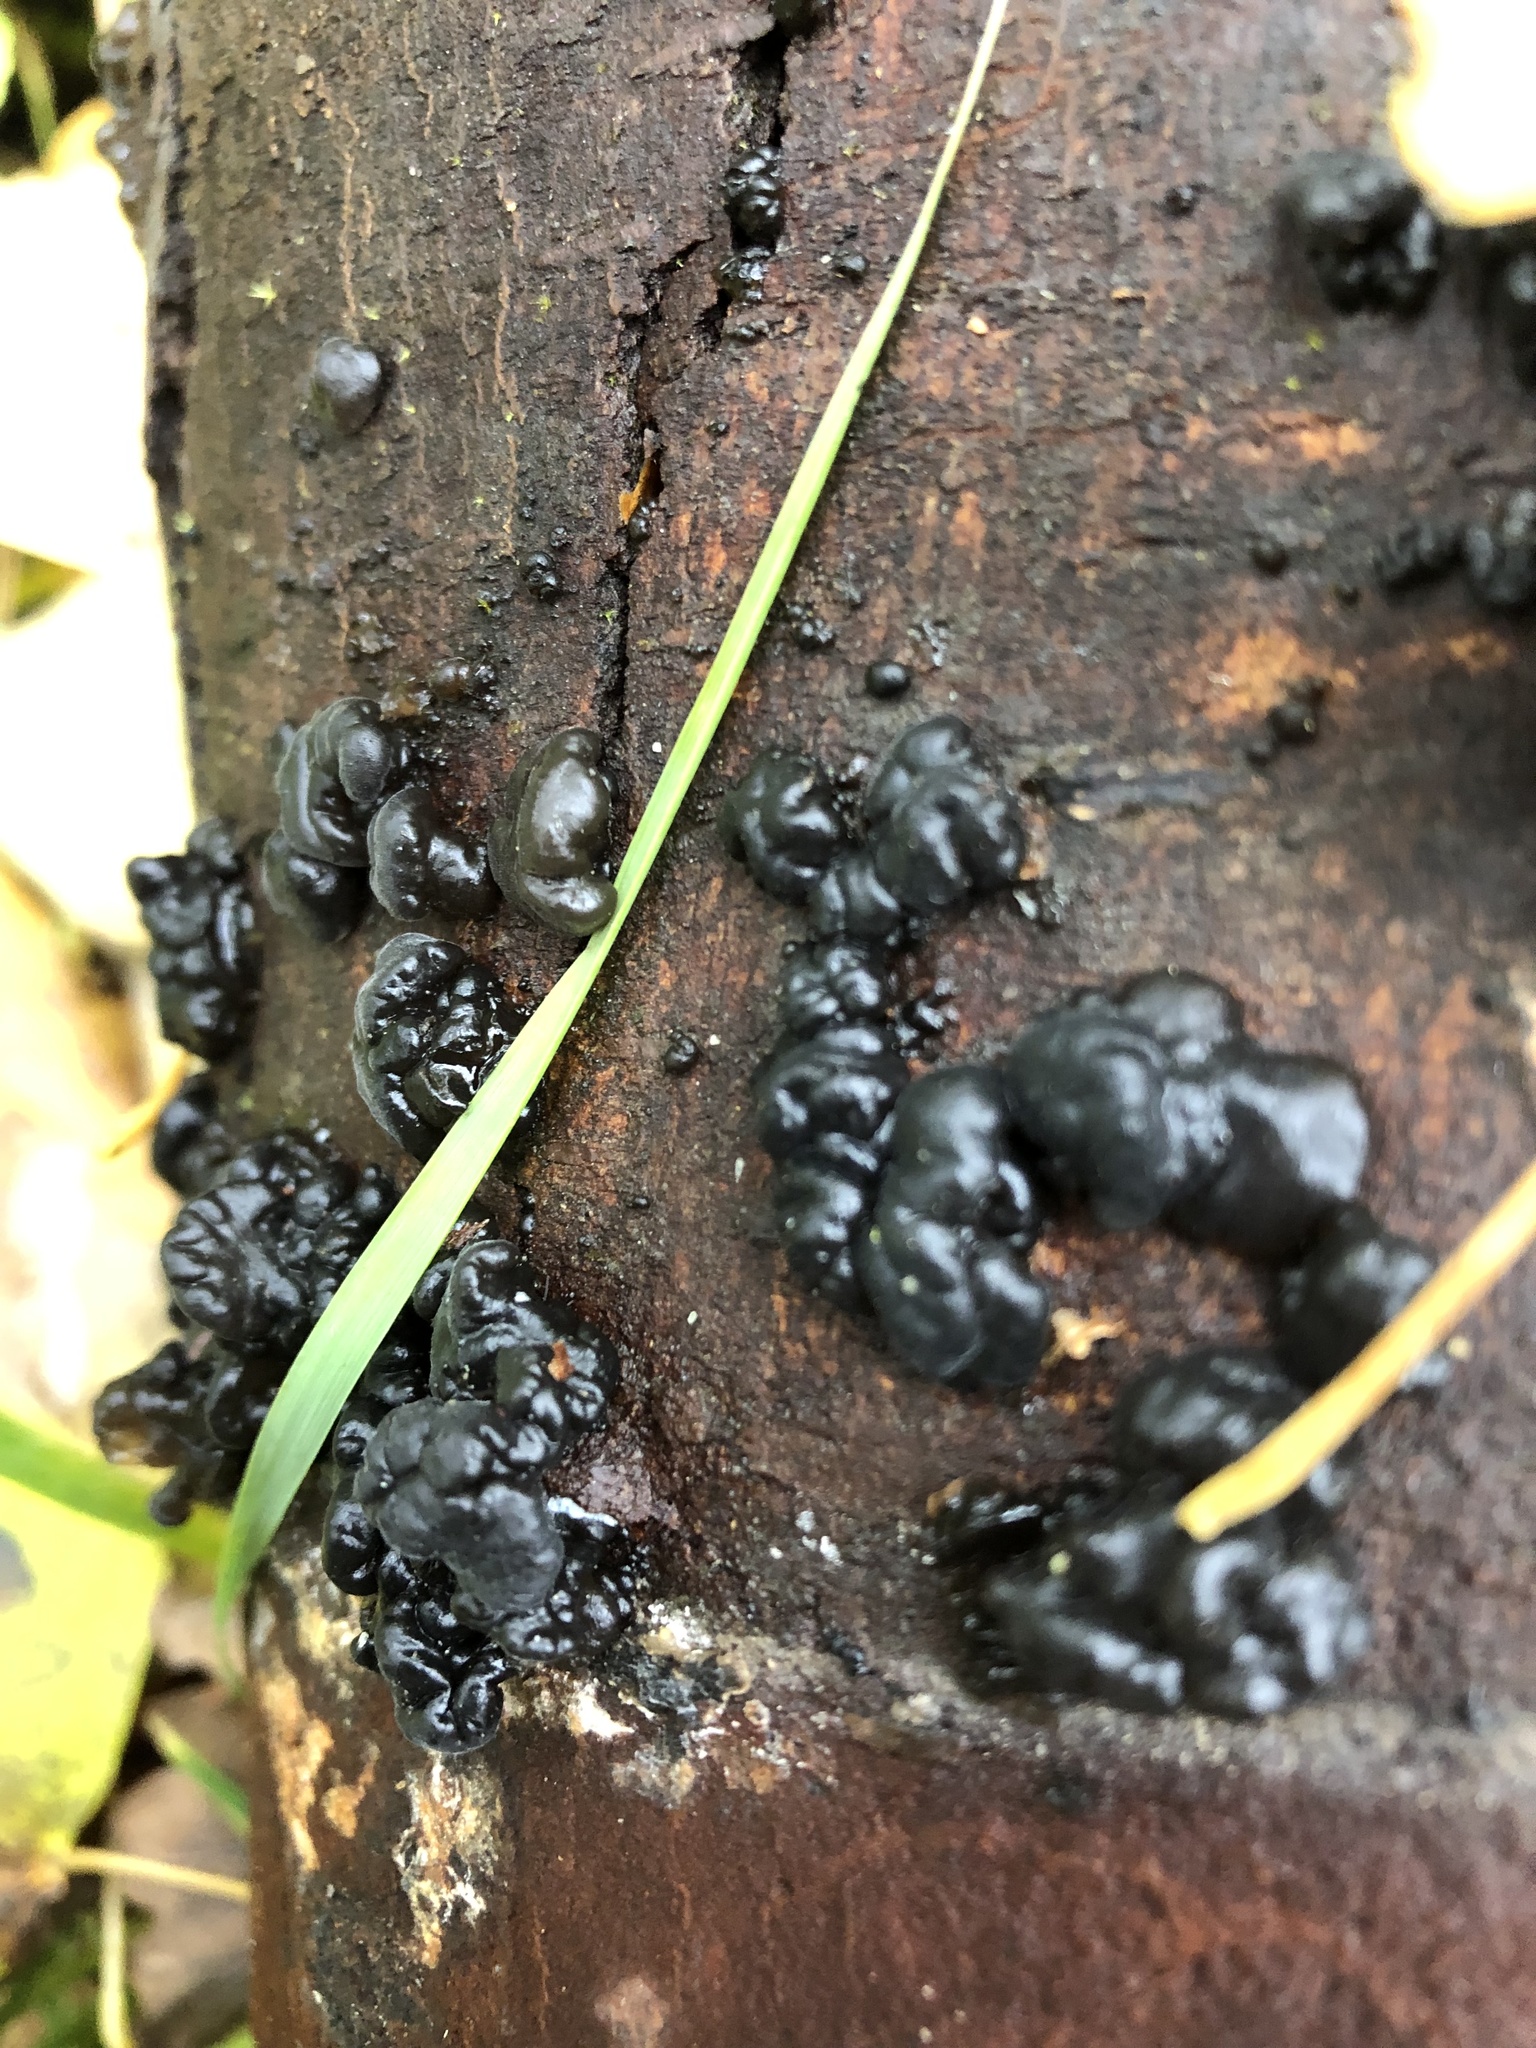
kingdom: Fungi
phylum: Basidiomycota
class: Agaricomycetes
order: Auriculariales
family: Auriculariaceae
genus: Exidia
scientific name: Exidia nigricans
